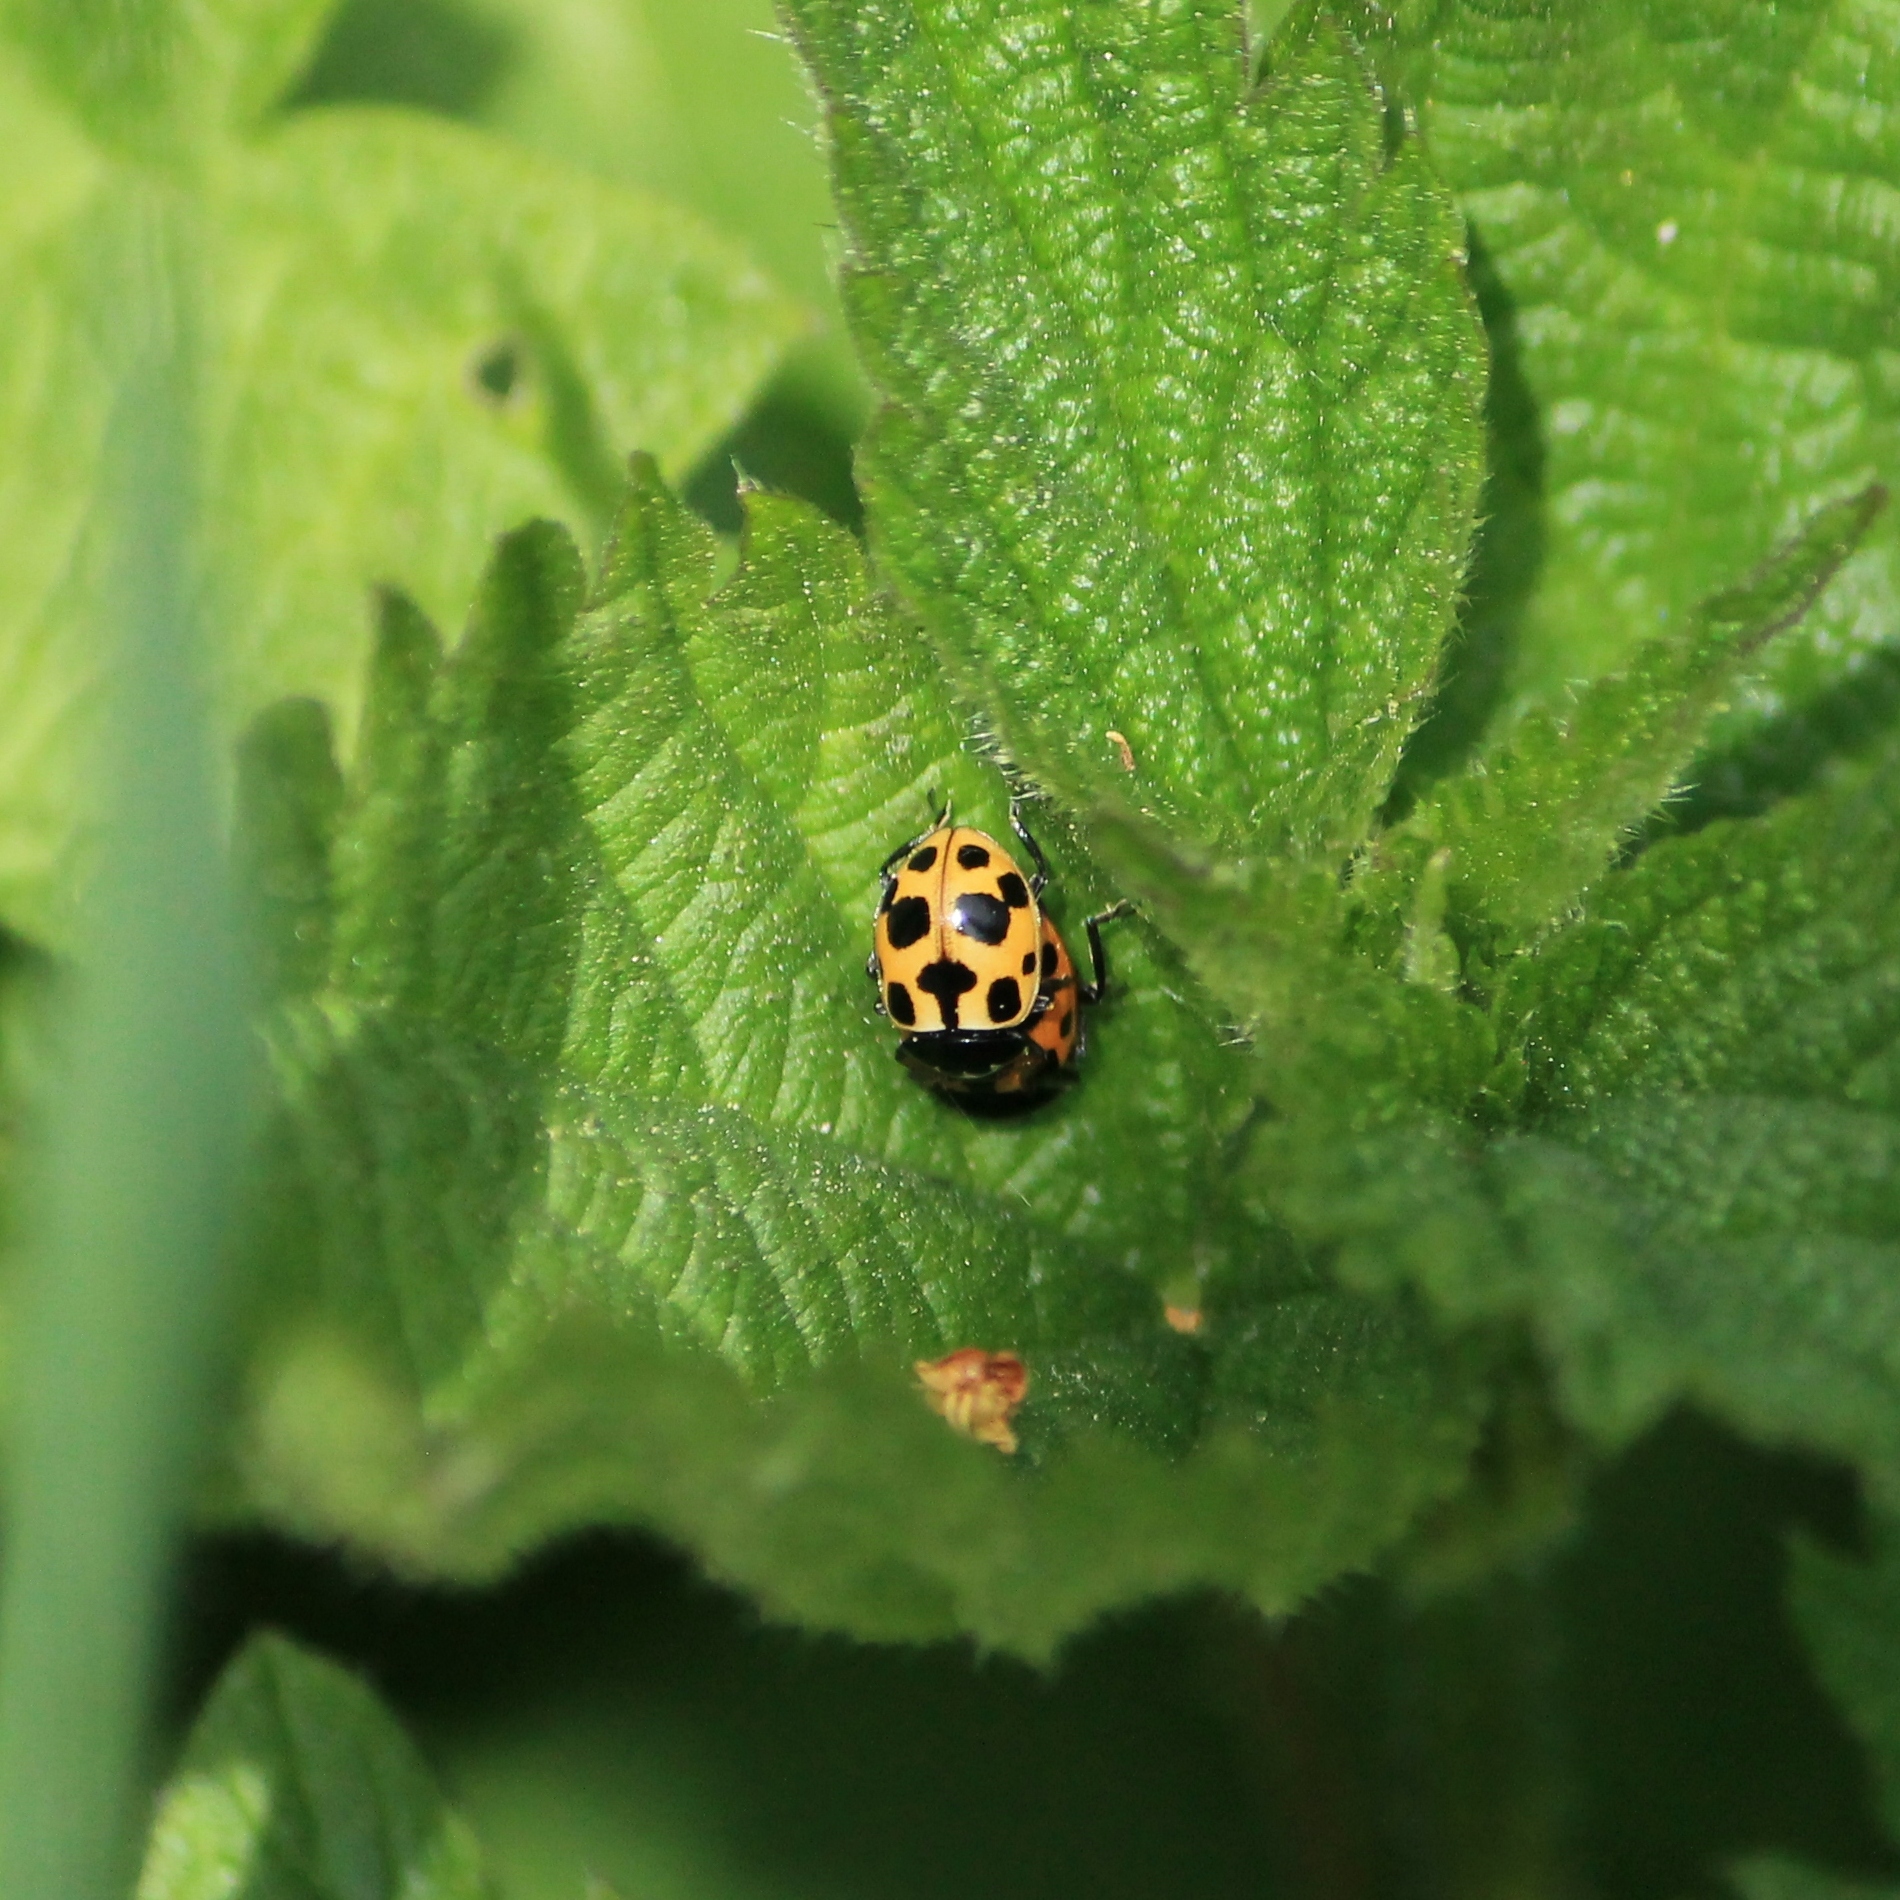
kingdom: Animalia
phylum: Arthropoda
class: Insecta
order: Coleoptera
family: Coccinellidae
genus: Ceratomegilla
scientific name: Ceratomegilla notata
